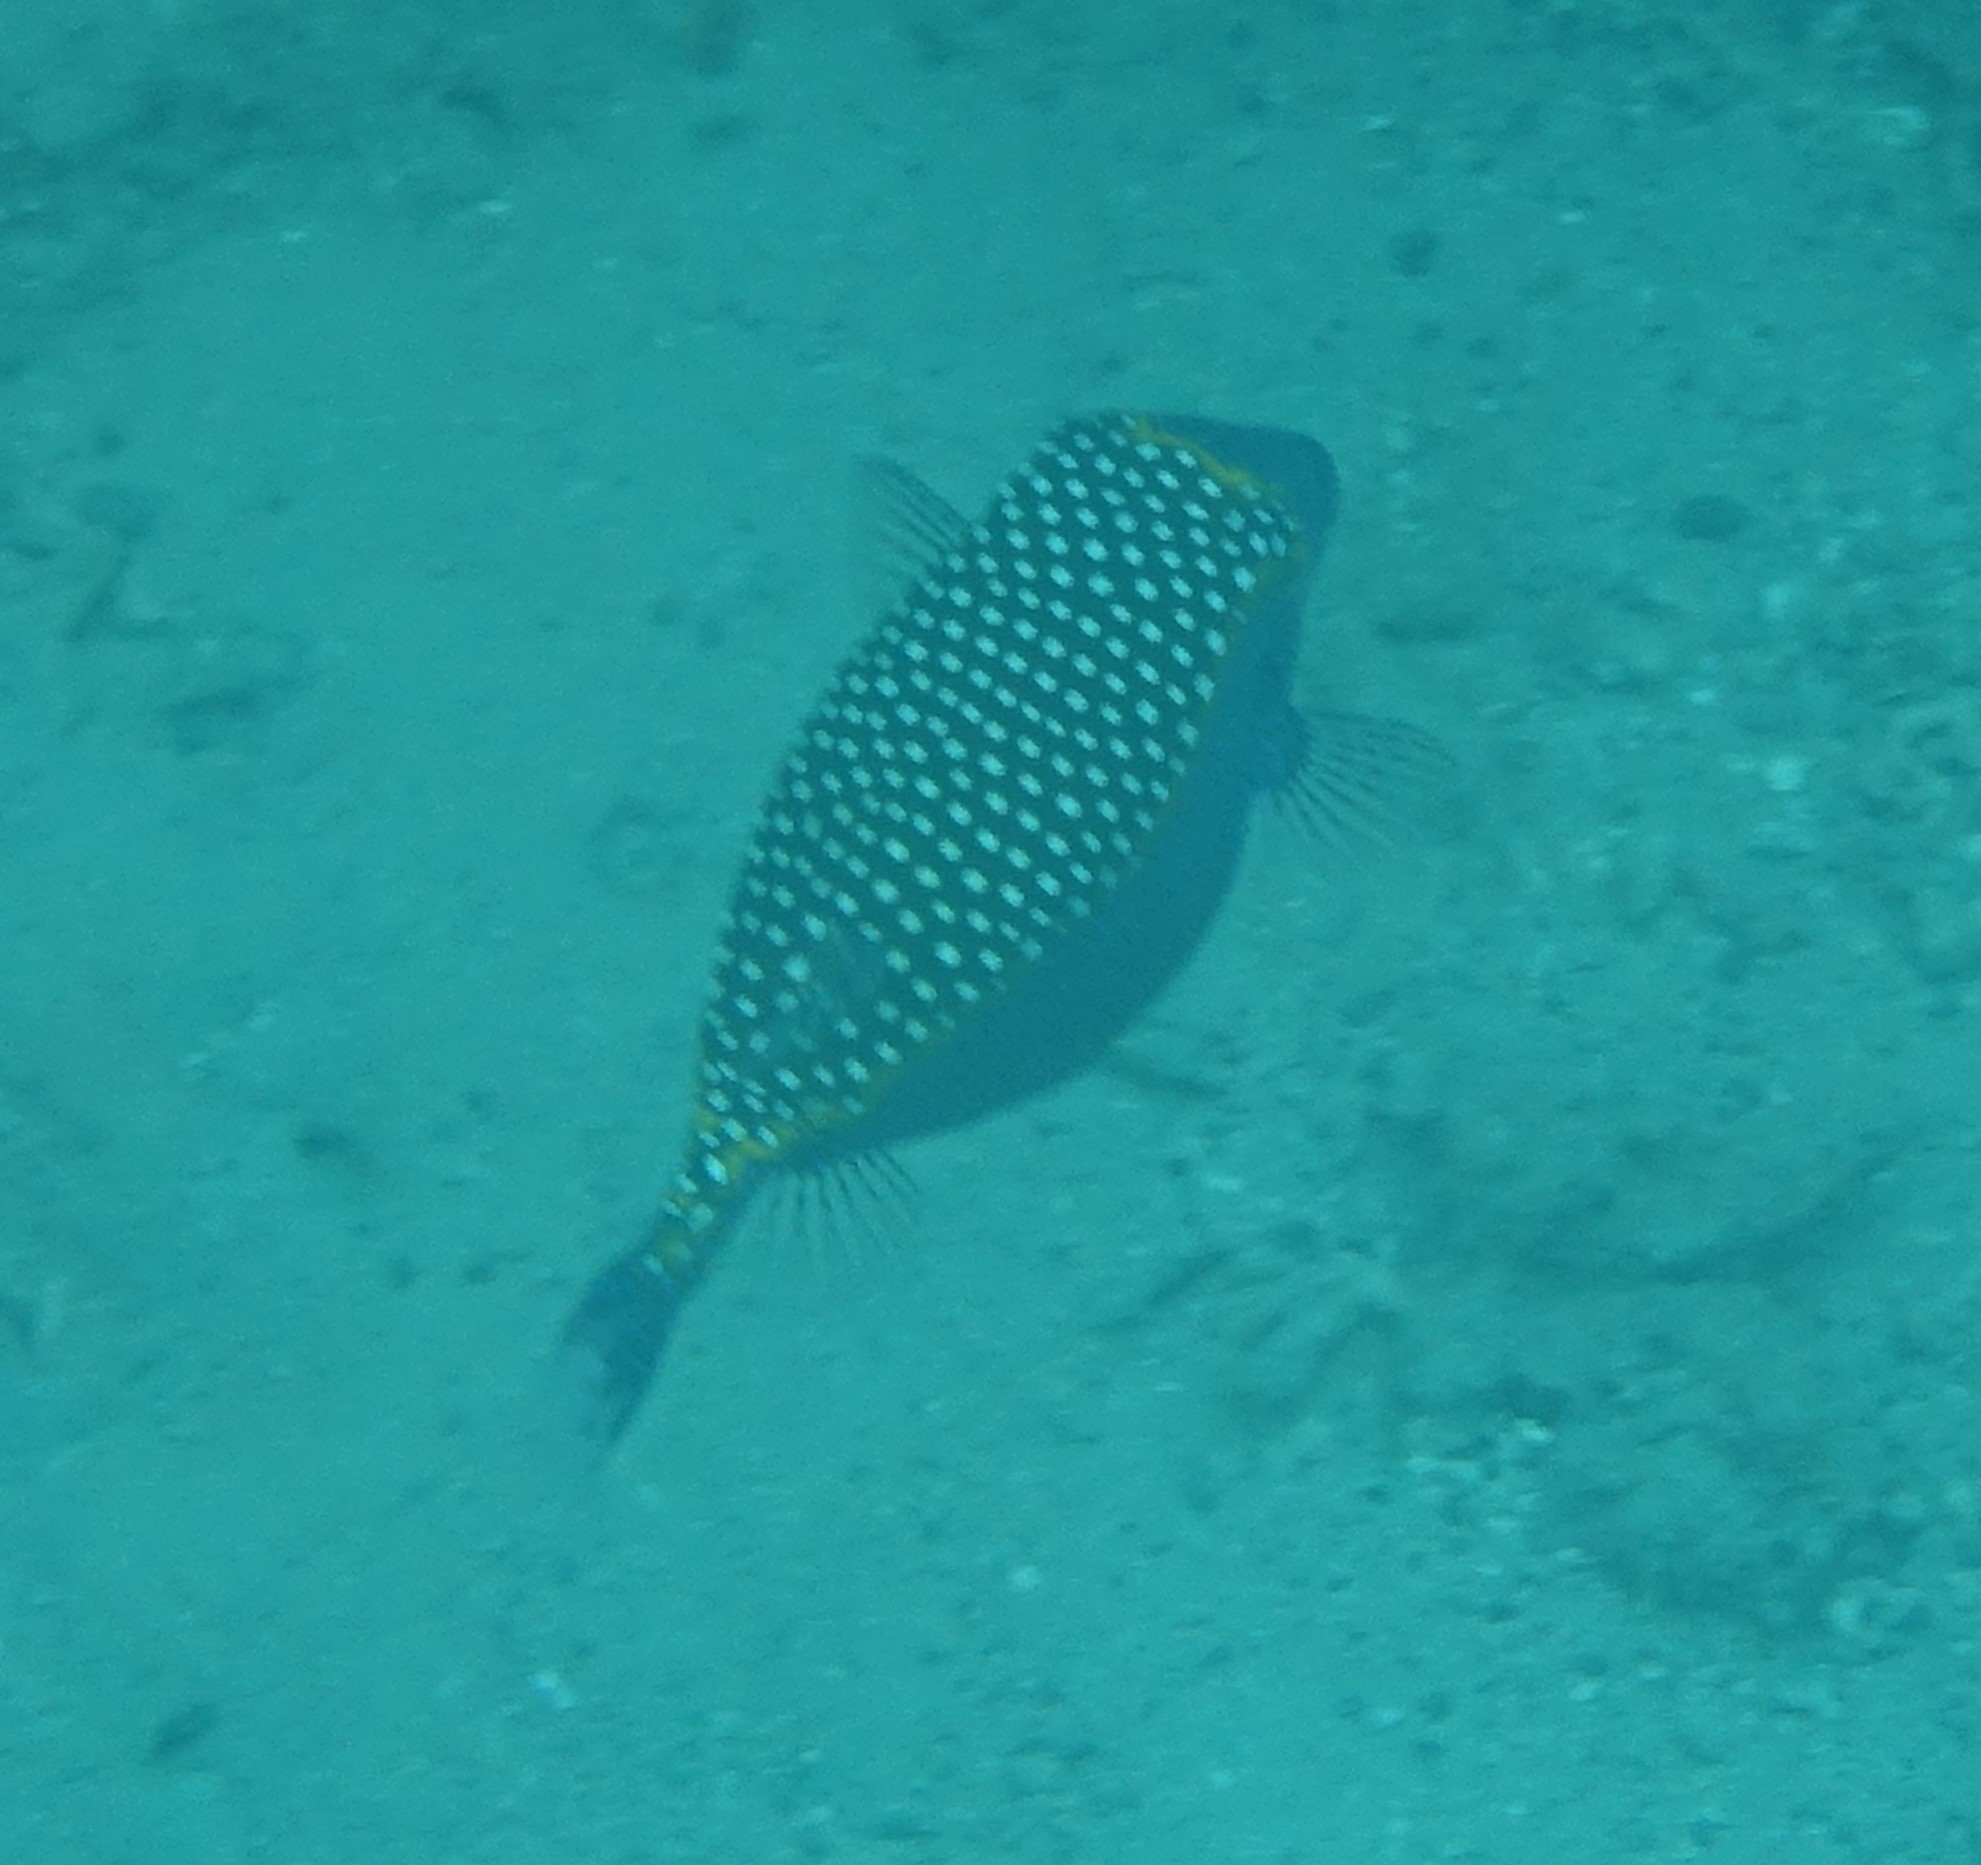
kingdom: Animalia
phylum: Chordata
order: Tetraodontiformes
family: Ostraciidae
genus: Ostracion
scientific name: Ostracion meleagris
